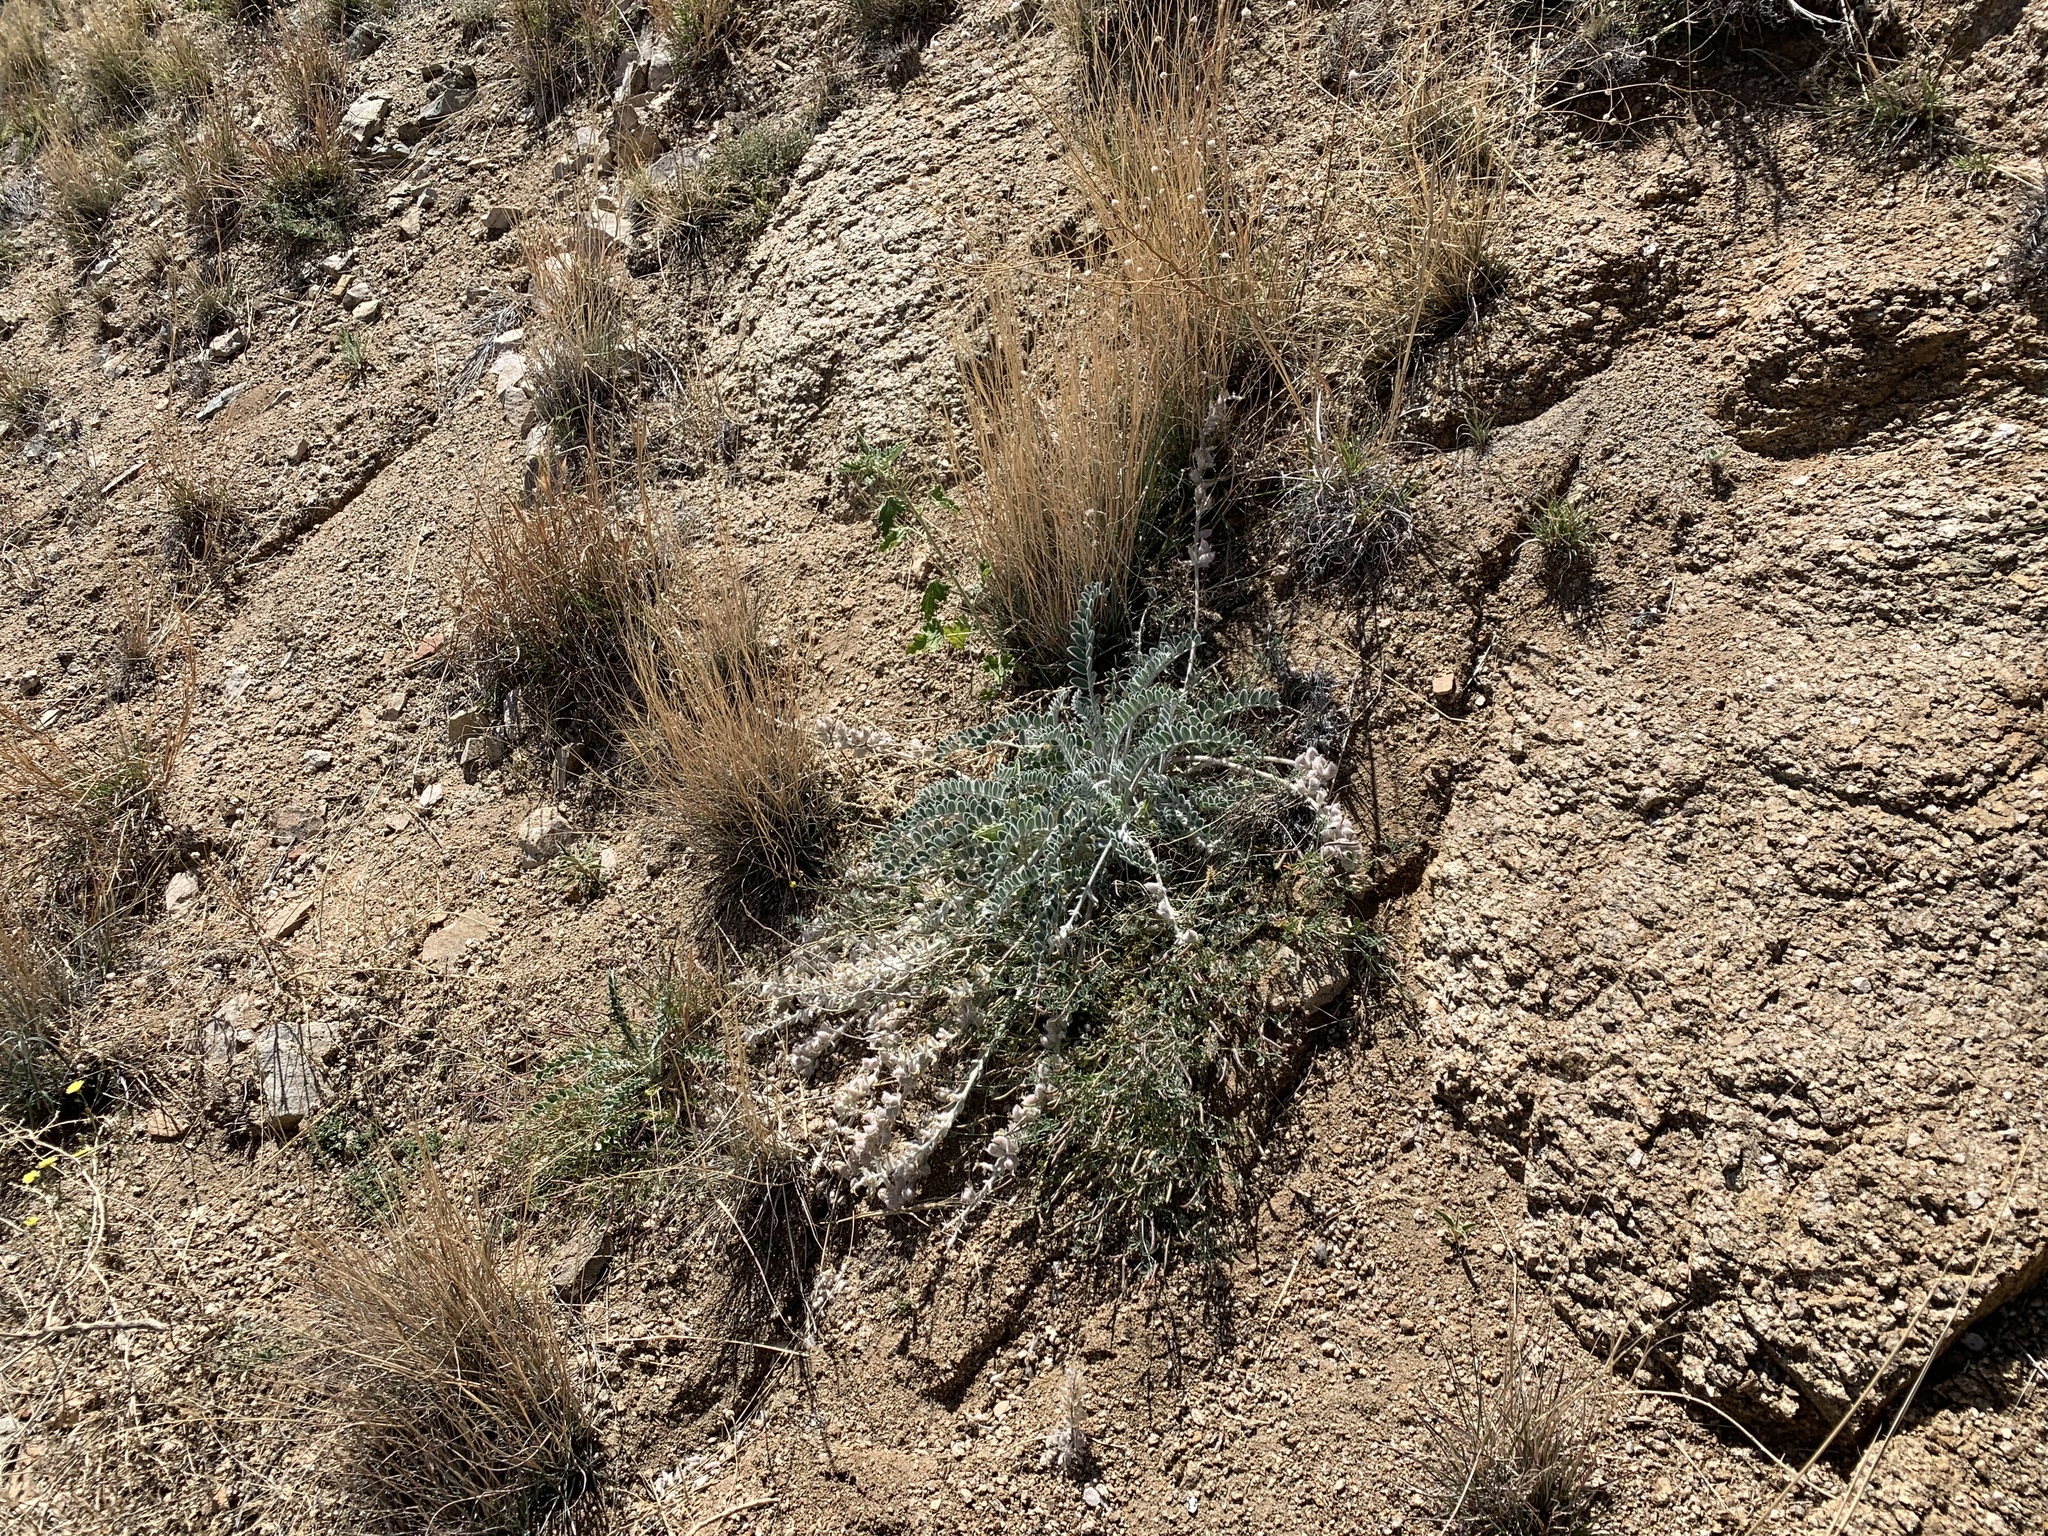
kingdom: Plantae
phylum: Tracheophyta
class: Magnoliopsida
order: Fabales
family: Fabaceae
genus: Astragalus
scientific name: Astragalus mollissimus
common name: Woolly locoweed
